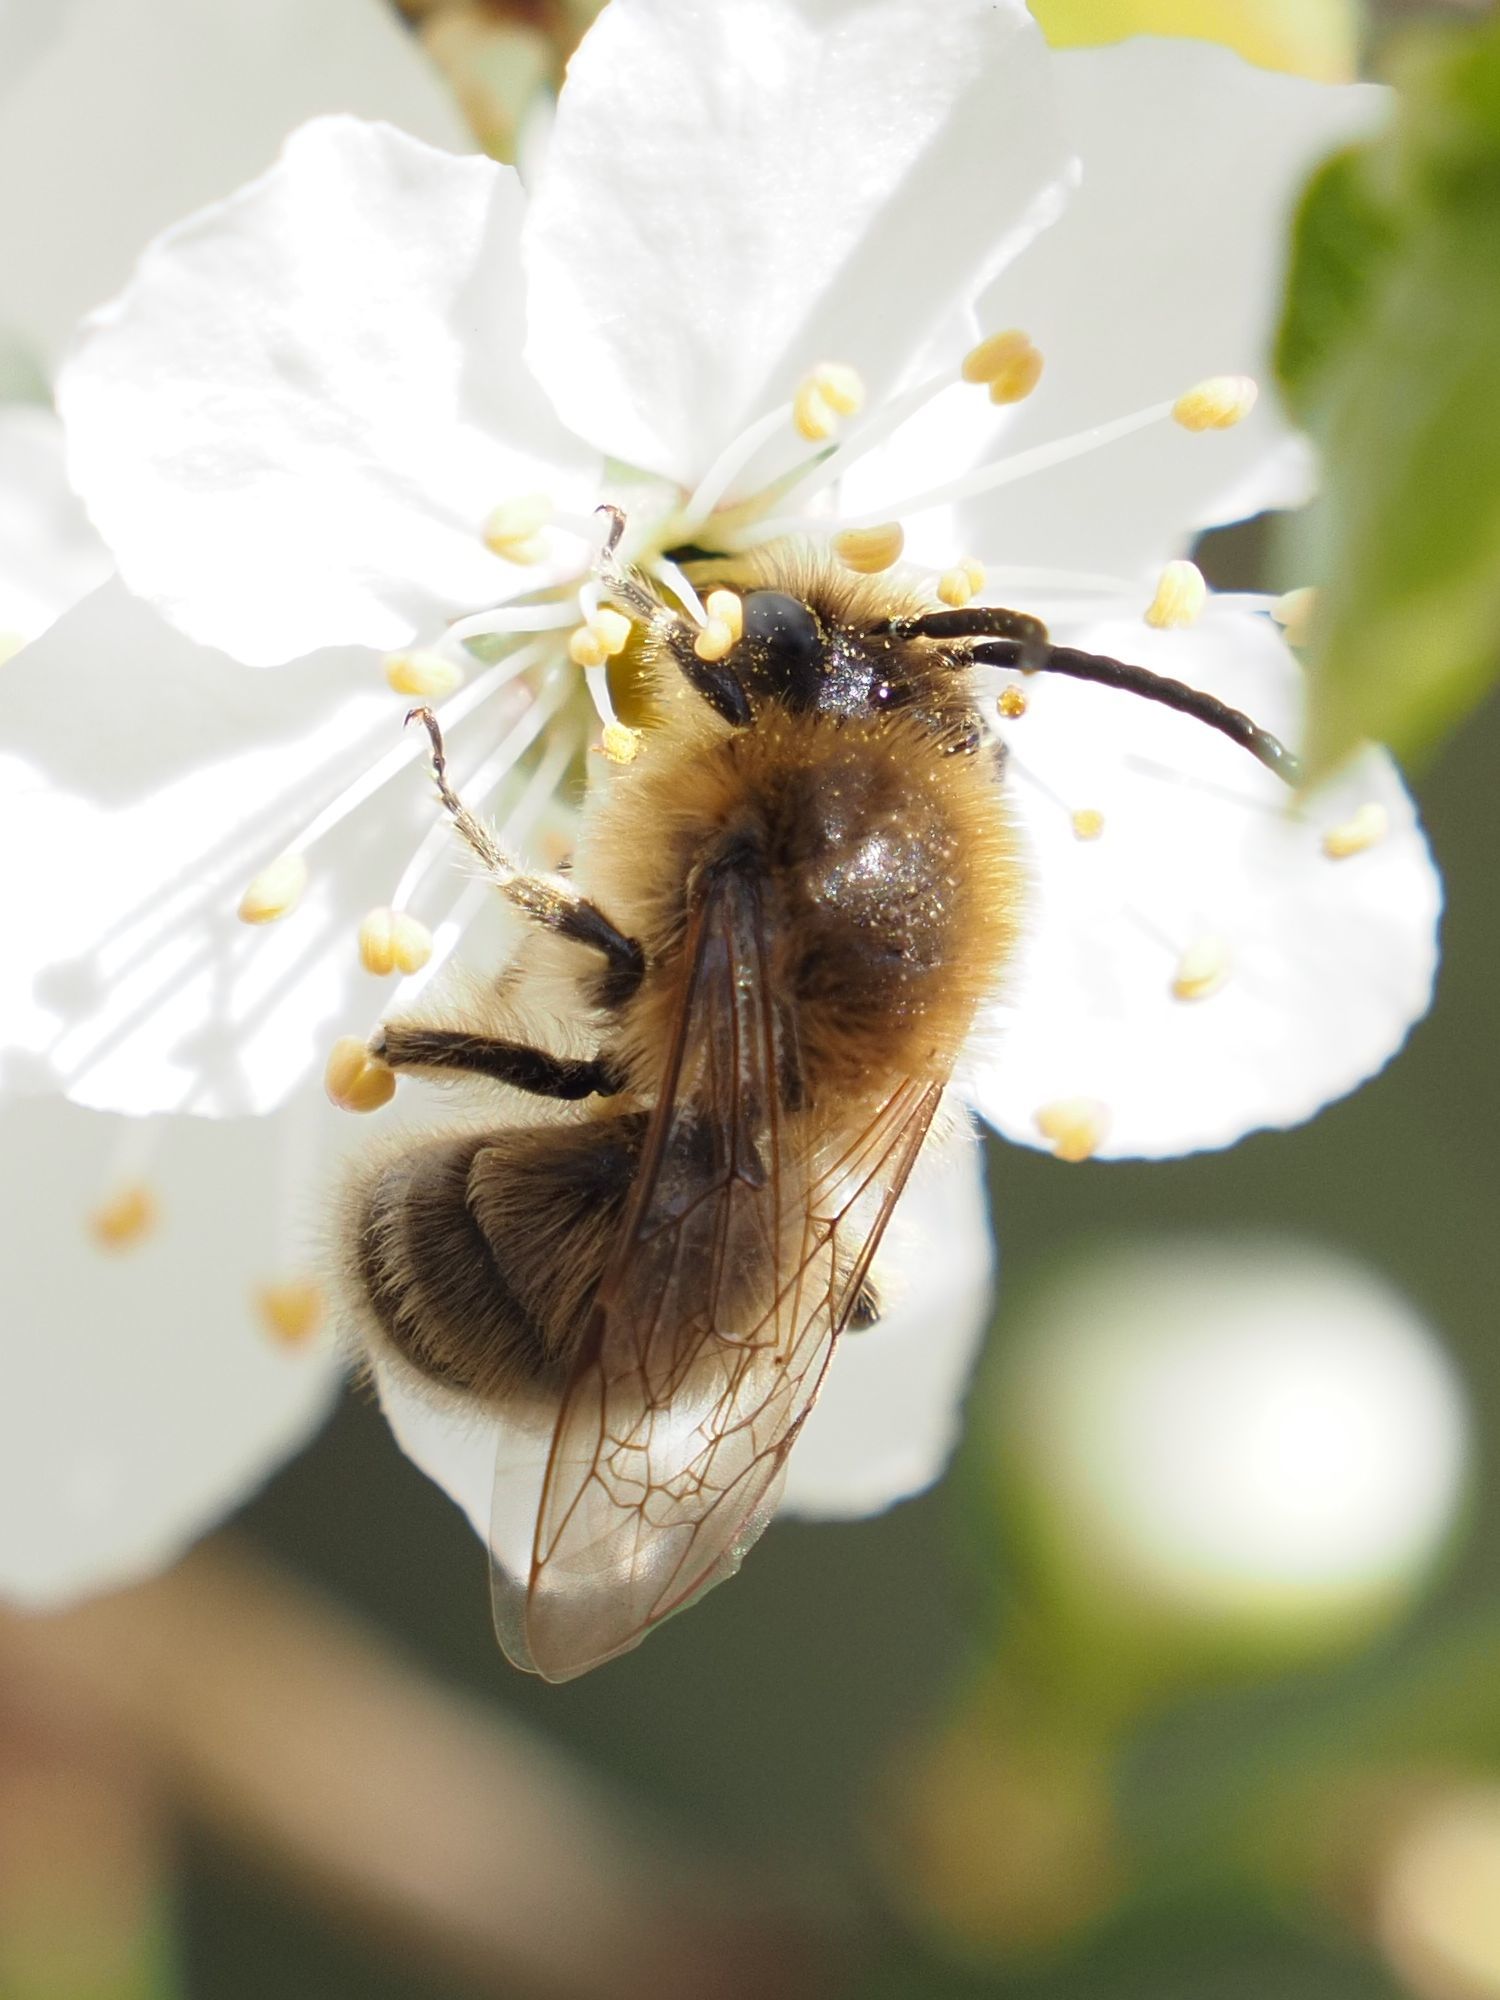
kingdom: Animalia
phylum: Arthropoda
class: Insecta
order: Hymenoptera
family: Colletidae
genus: Colletes
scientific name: Colletes cunicularius
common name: Early colletes
